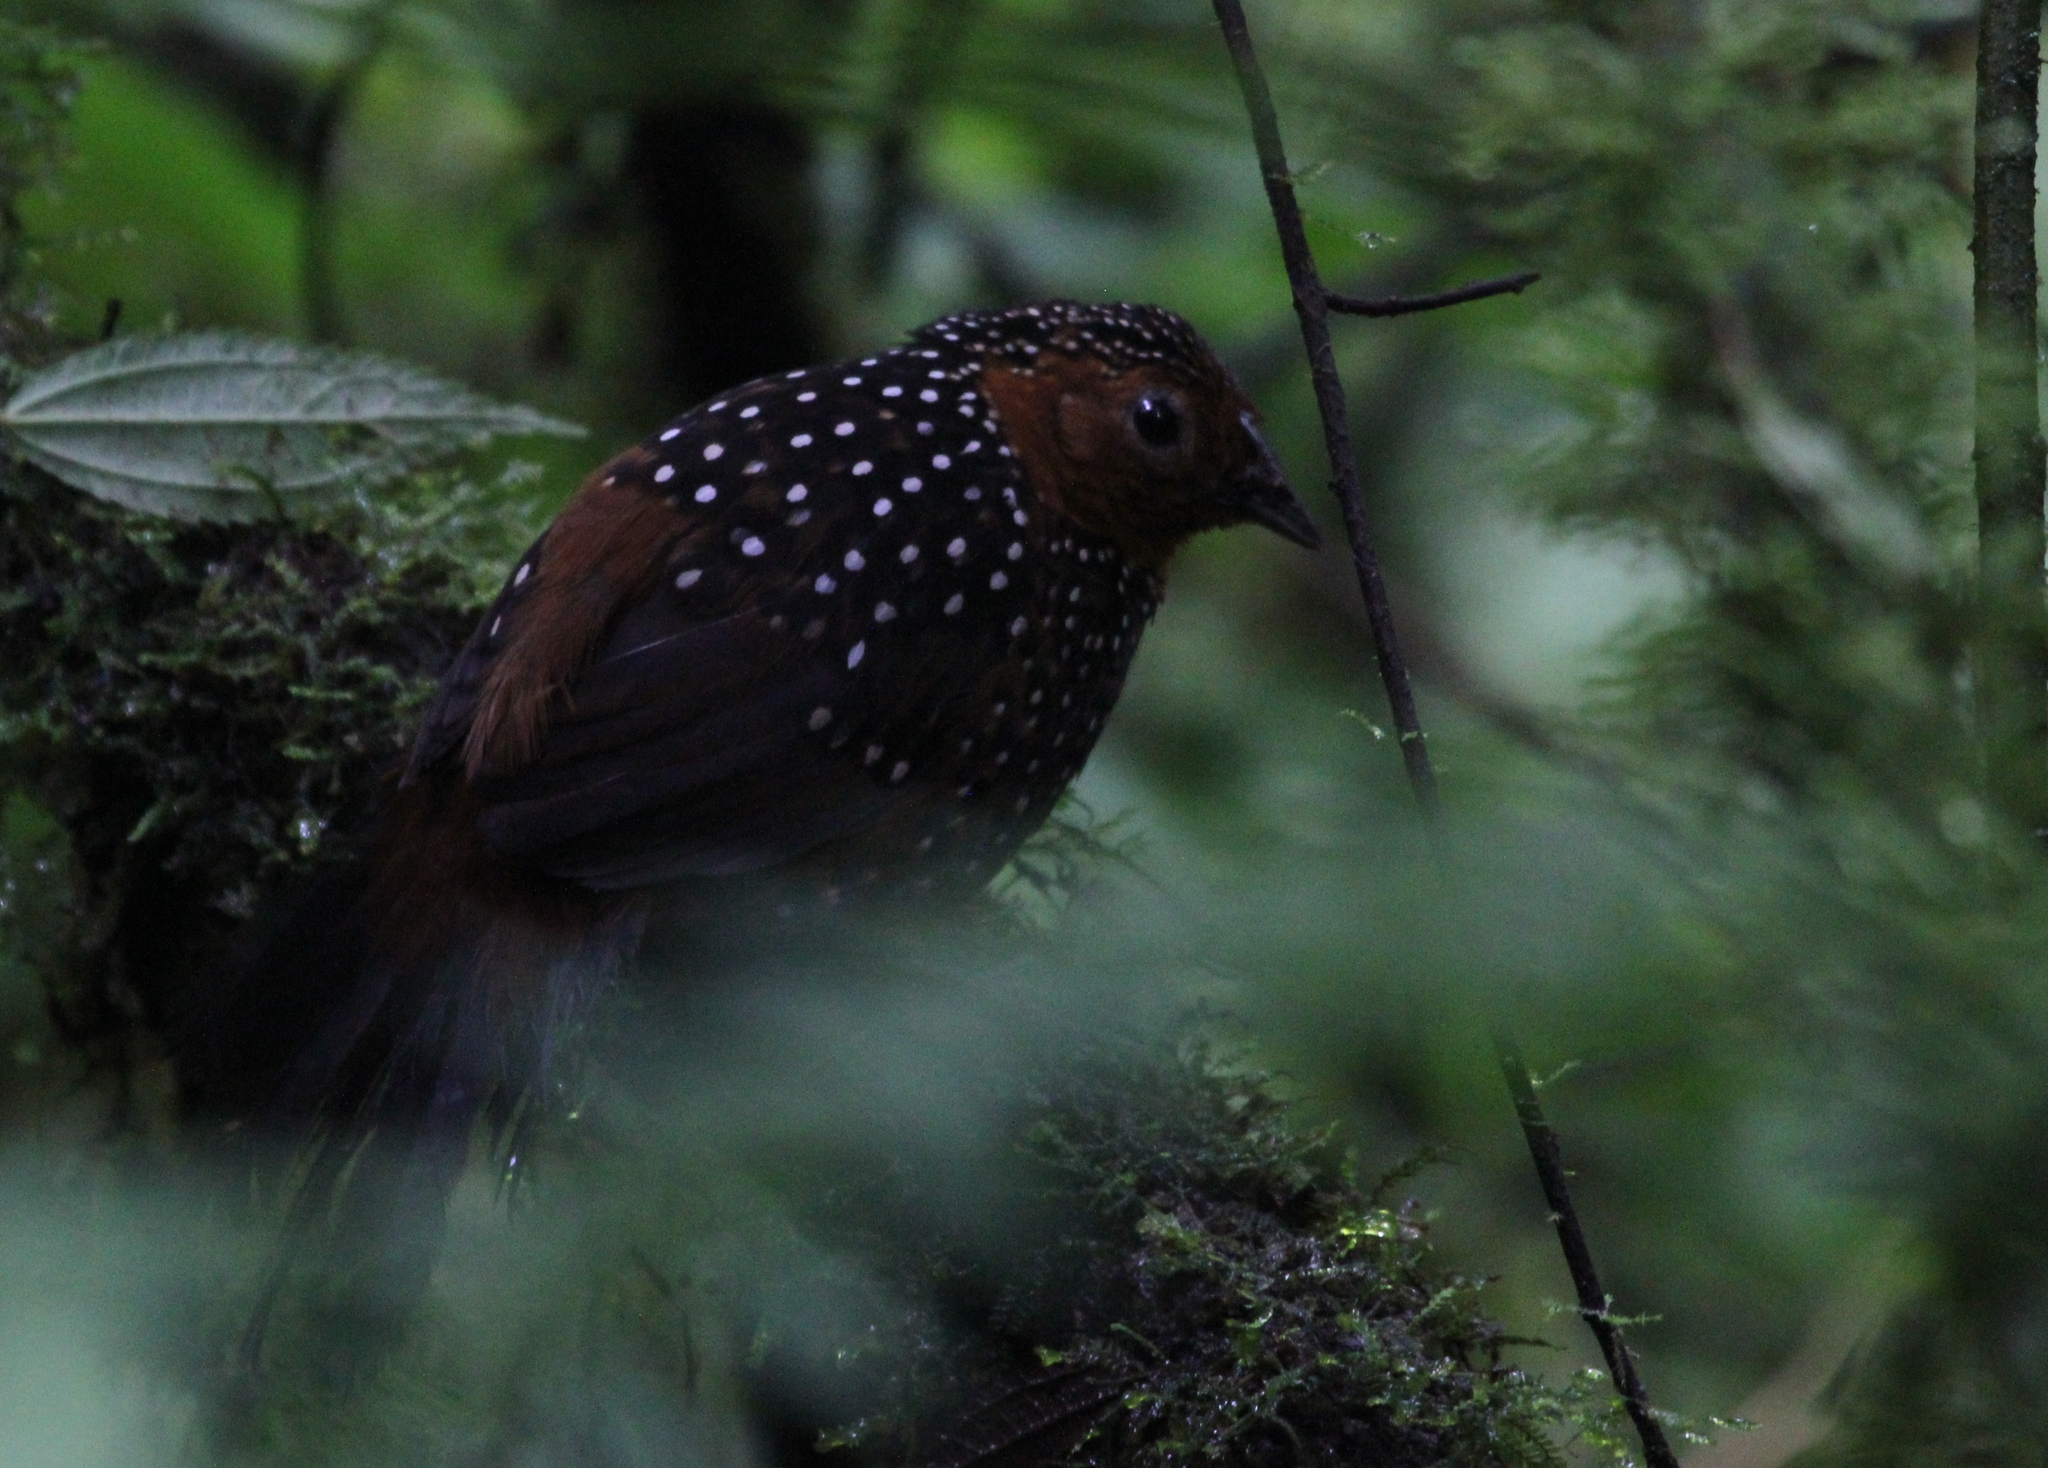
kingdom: Animalia
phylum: Chordata
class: Aves
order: Passeriformes
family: Rhinocryptidae
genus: Acropternis
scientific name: Acropternis orthonyx
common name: Ocellated tapaculo
